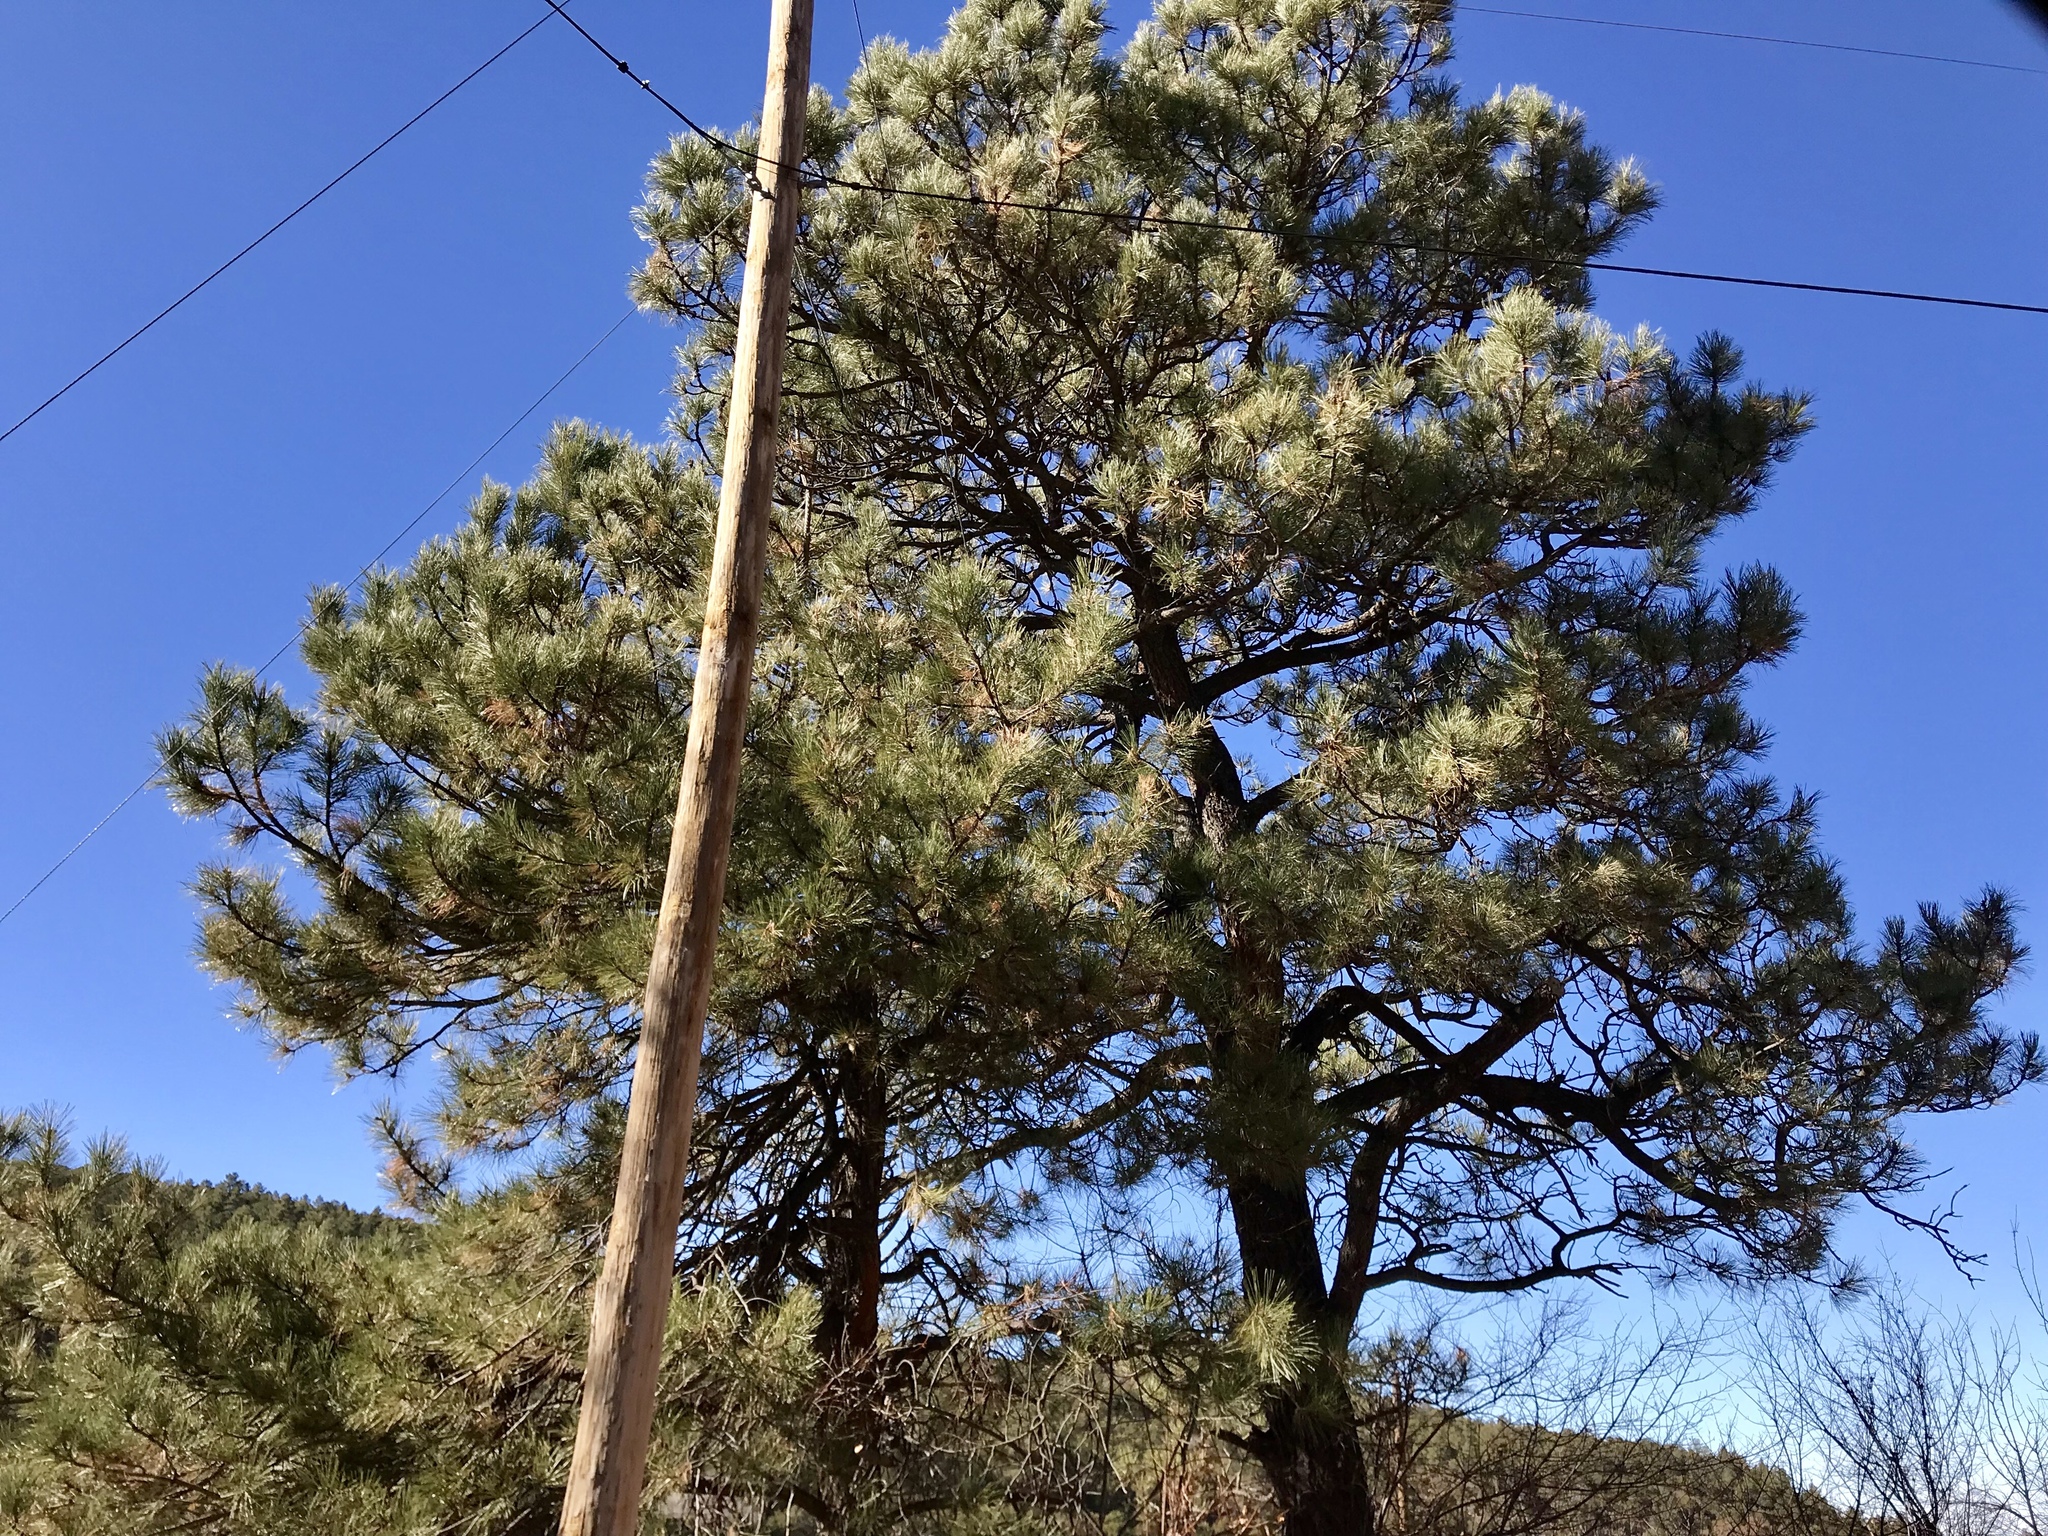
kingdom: Plantae
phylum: Tracheophyta
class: Pinopsida
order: Pinales
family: Pinaceae
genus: Pinus
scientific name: Pinus ponderosa
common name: Western yellow-pine
